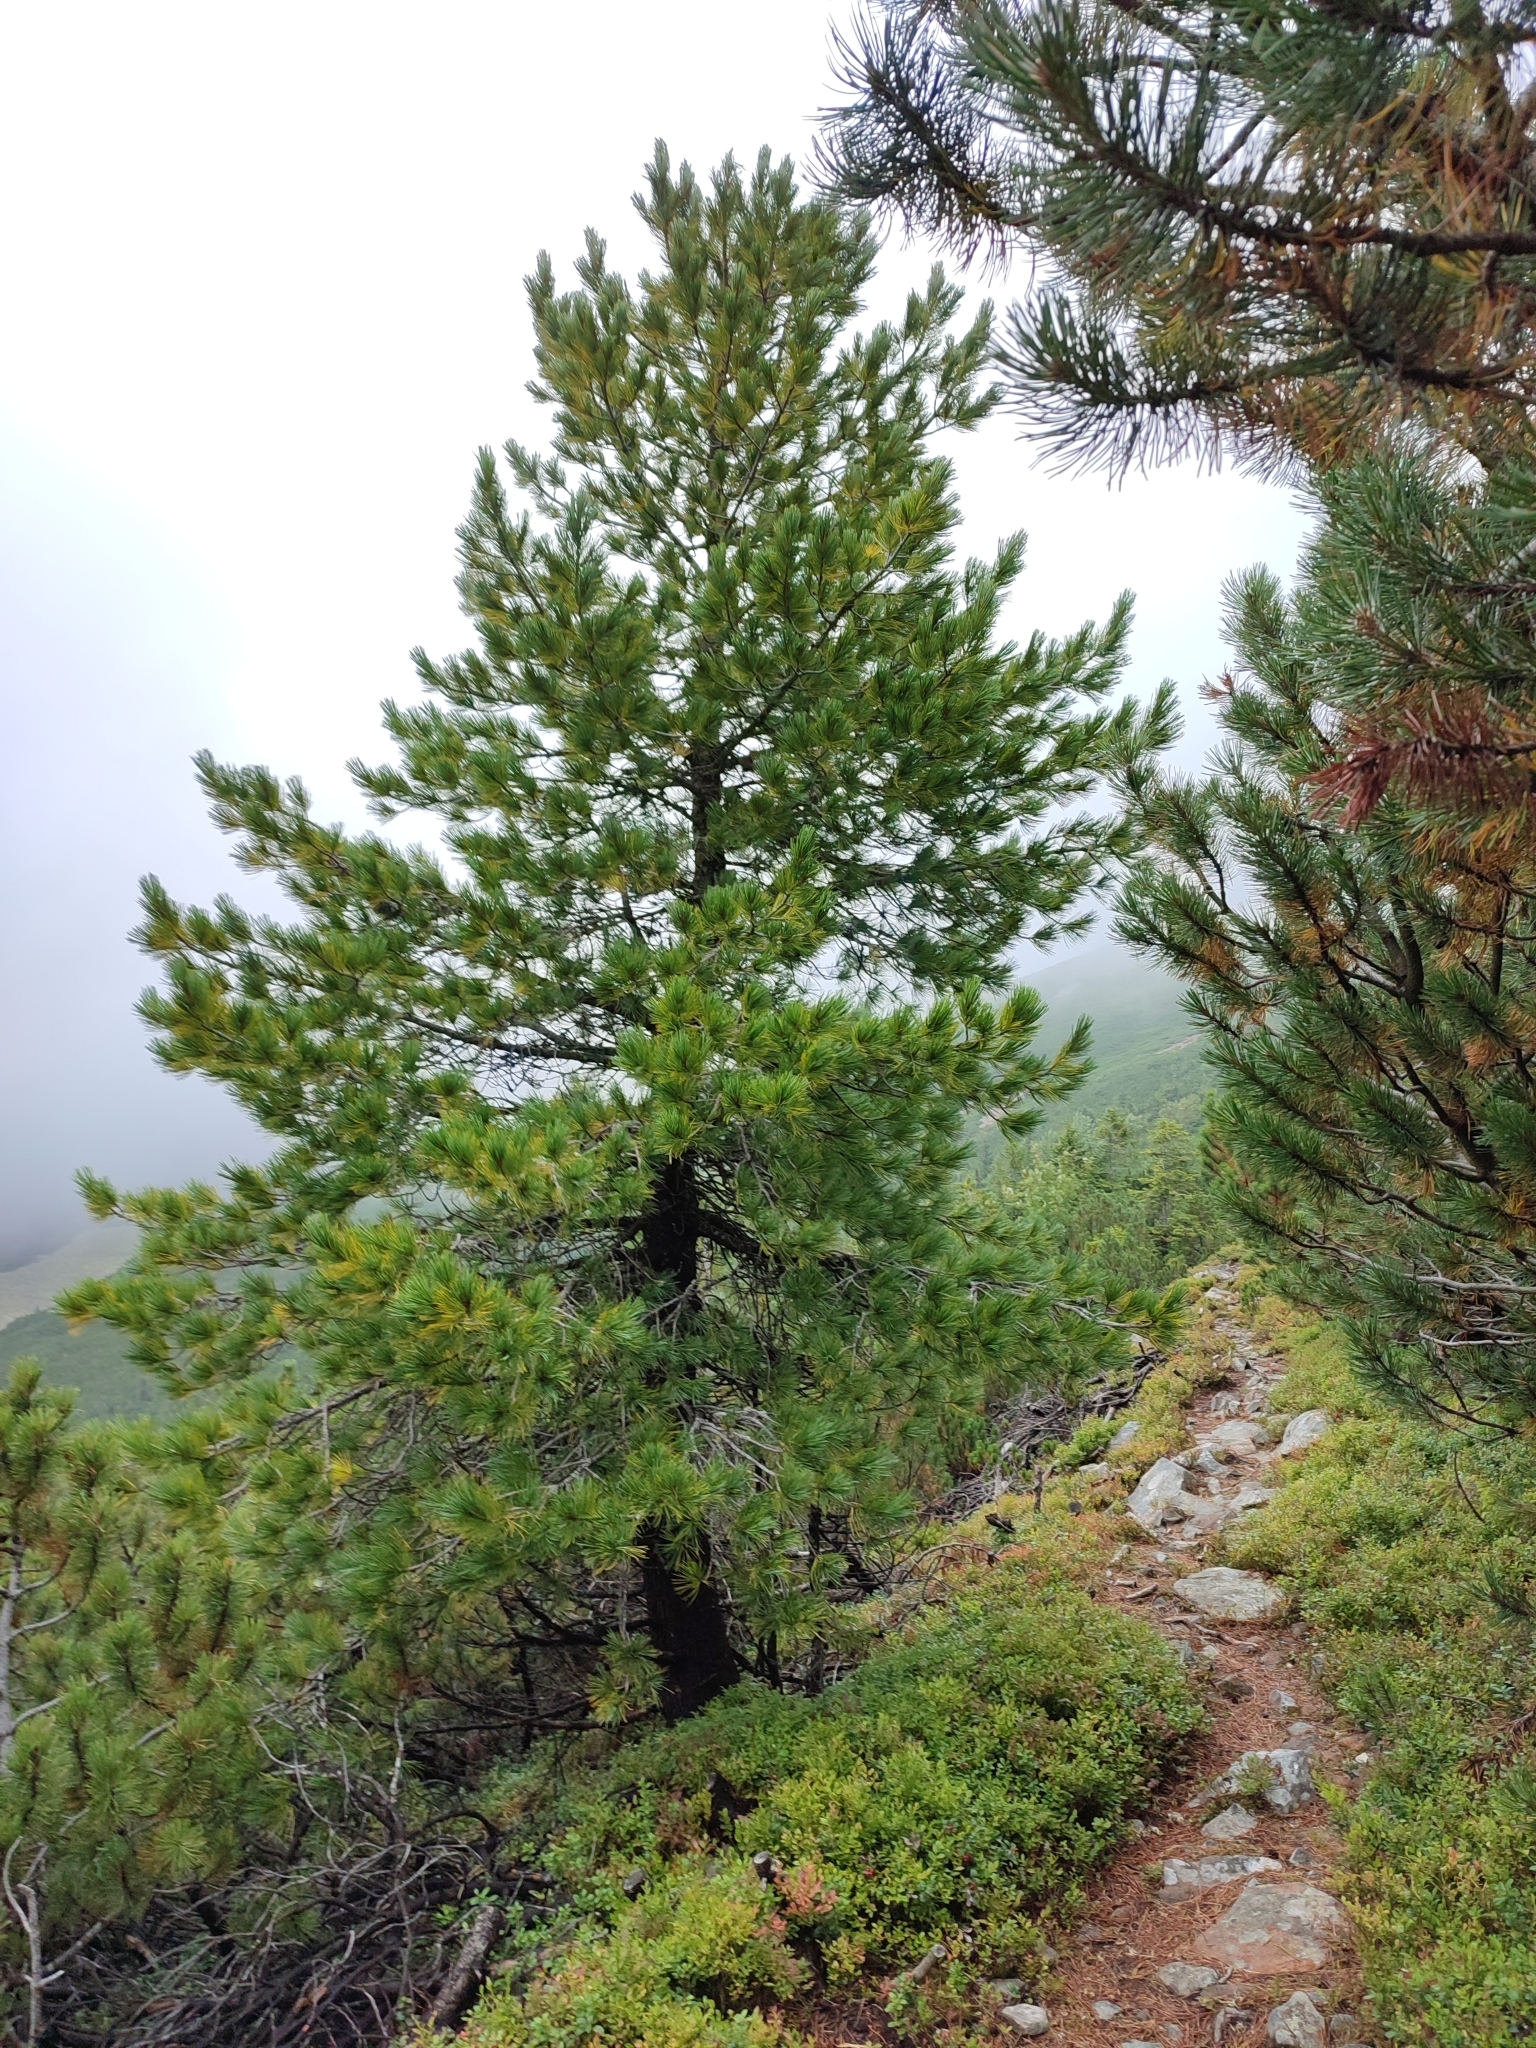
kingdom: Plantae
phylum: Tracheophyta
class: Pinopsida
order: Pinales
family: Pinaceae
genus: Pinus
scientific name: Pinus cembra
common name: Arolla pine
